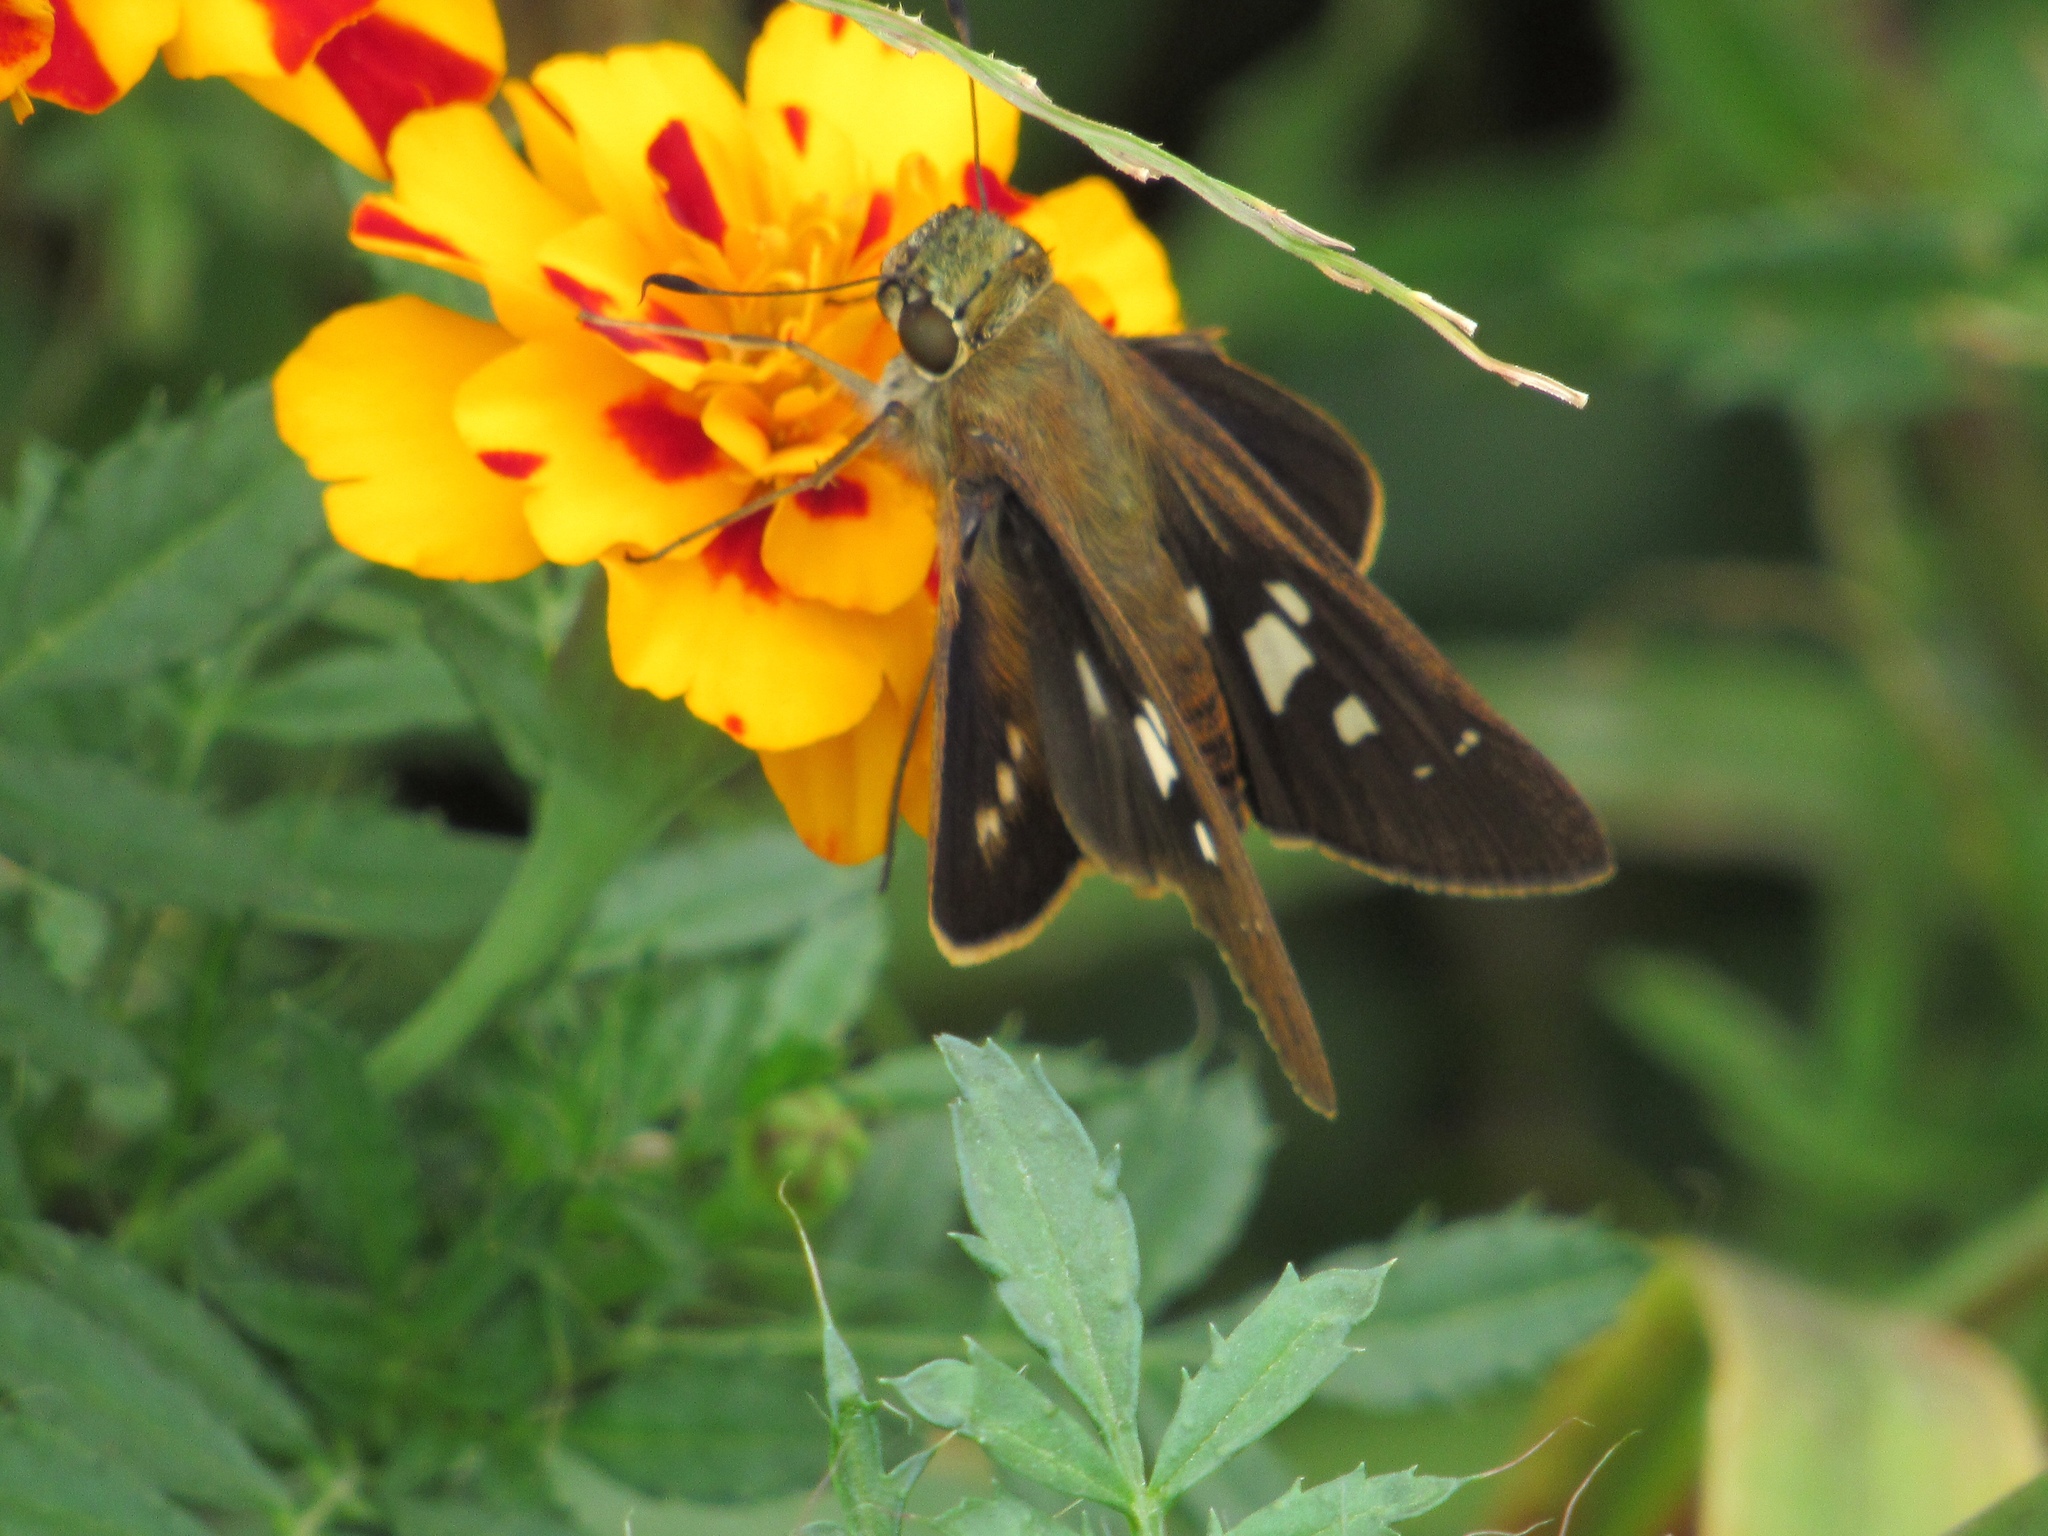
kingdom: Animalia
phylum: Arthropoda
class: Insecta
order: Lepidoptera
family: Hesperiidae
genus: Calpodes
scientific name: Calpodes ethlius
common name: Brazilian skipper
